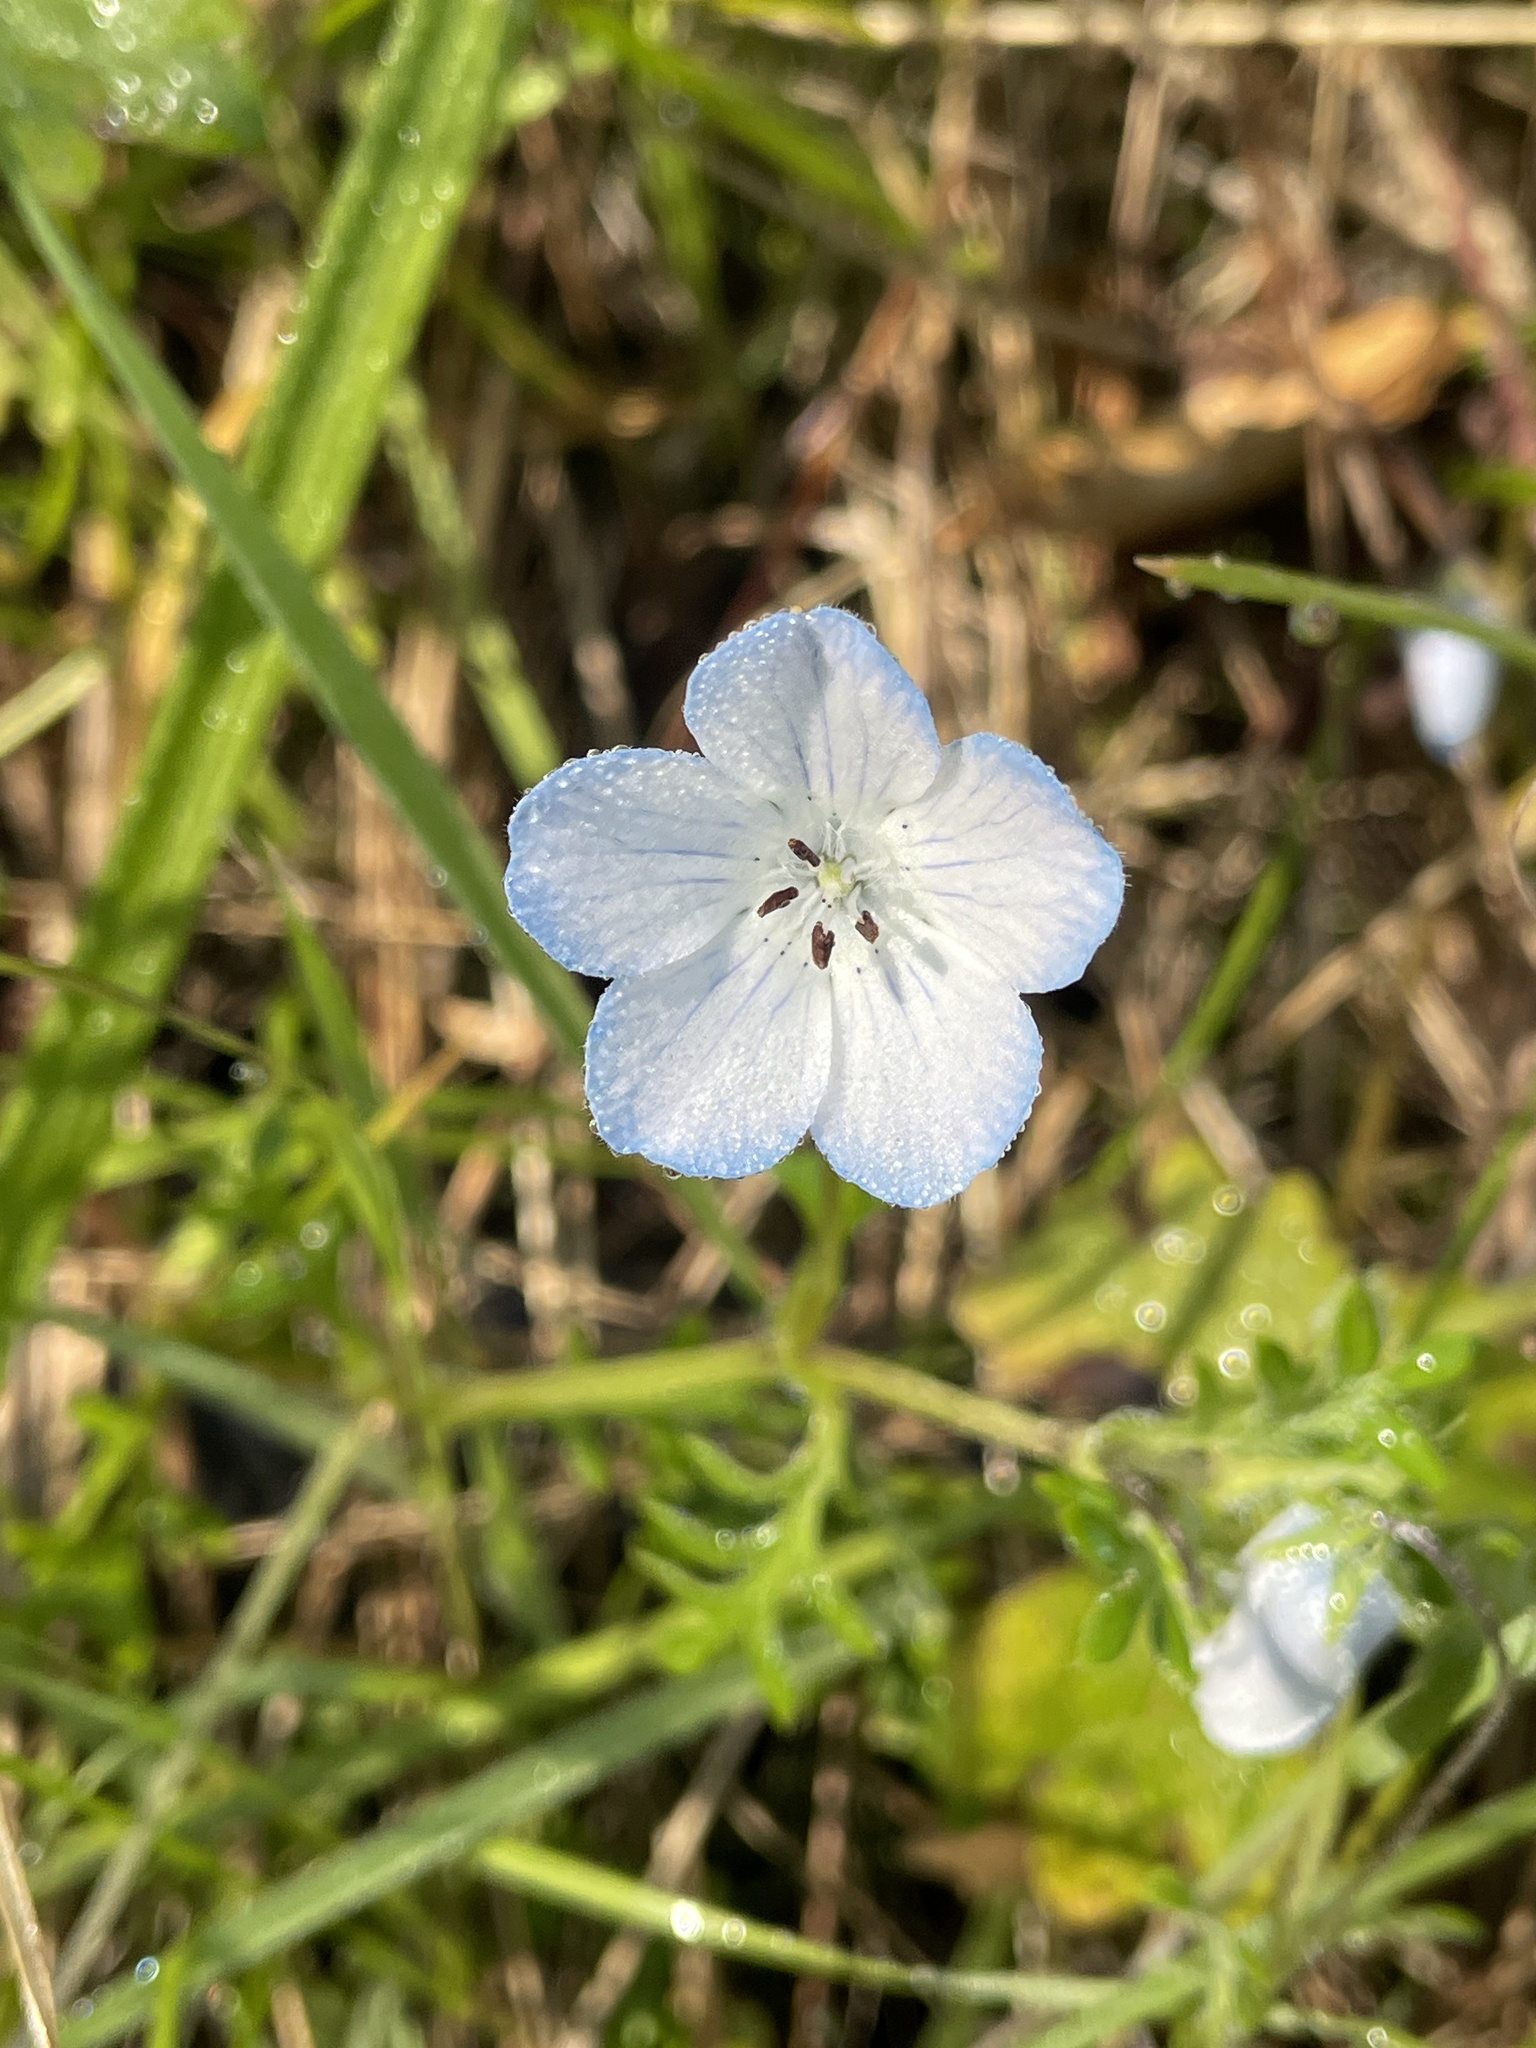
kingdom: Plantae
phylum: Tracheophyta
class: Magnoliopsida
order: Boraginales
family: Hydrophyllaceae
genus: Nemophila
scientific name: Nemophila menziesii
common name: Baby's-blue-eyes
